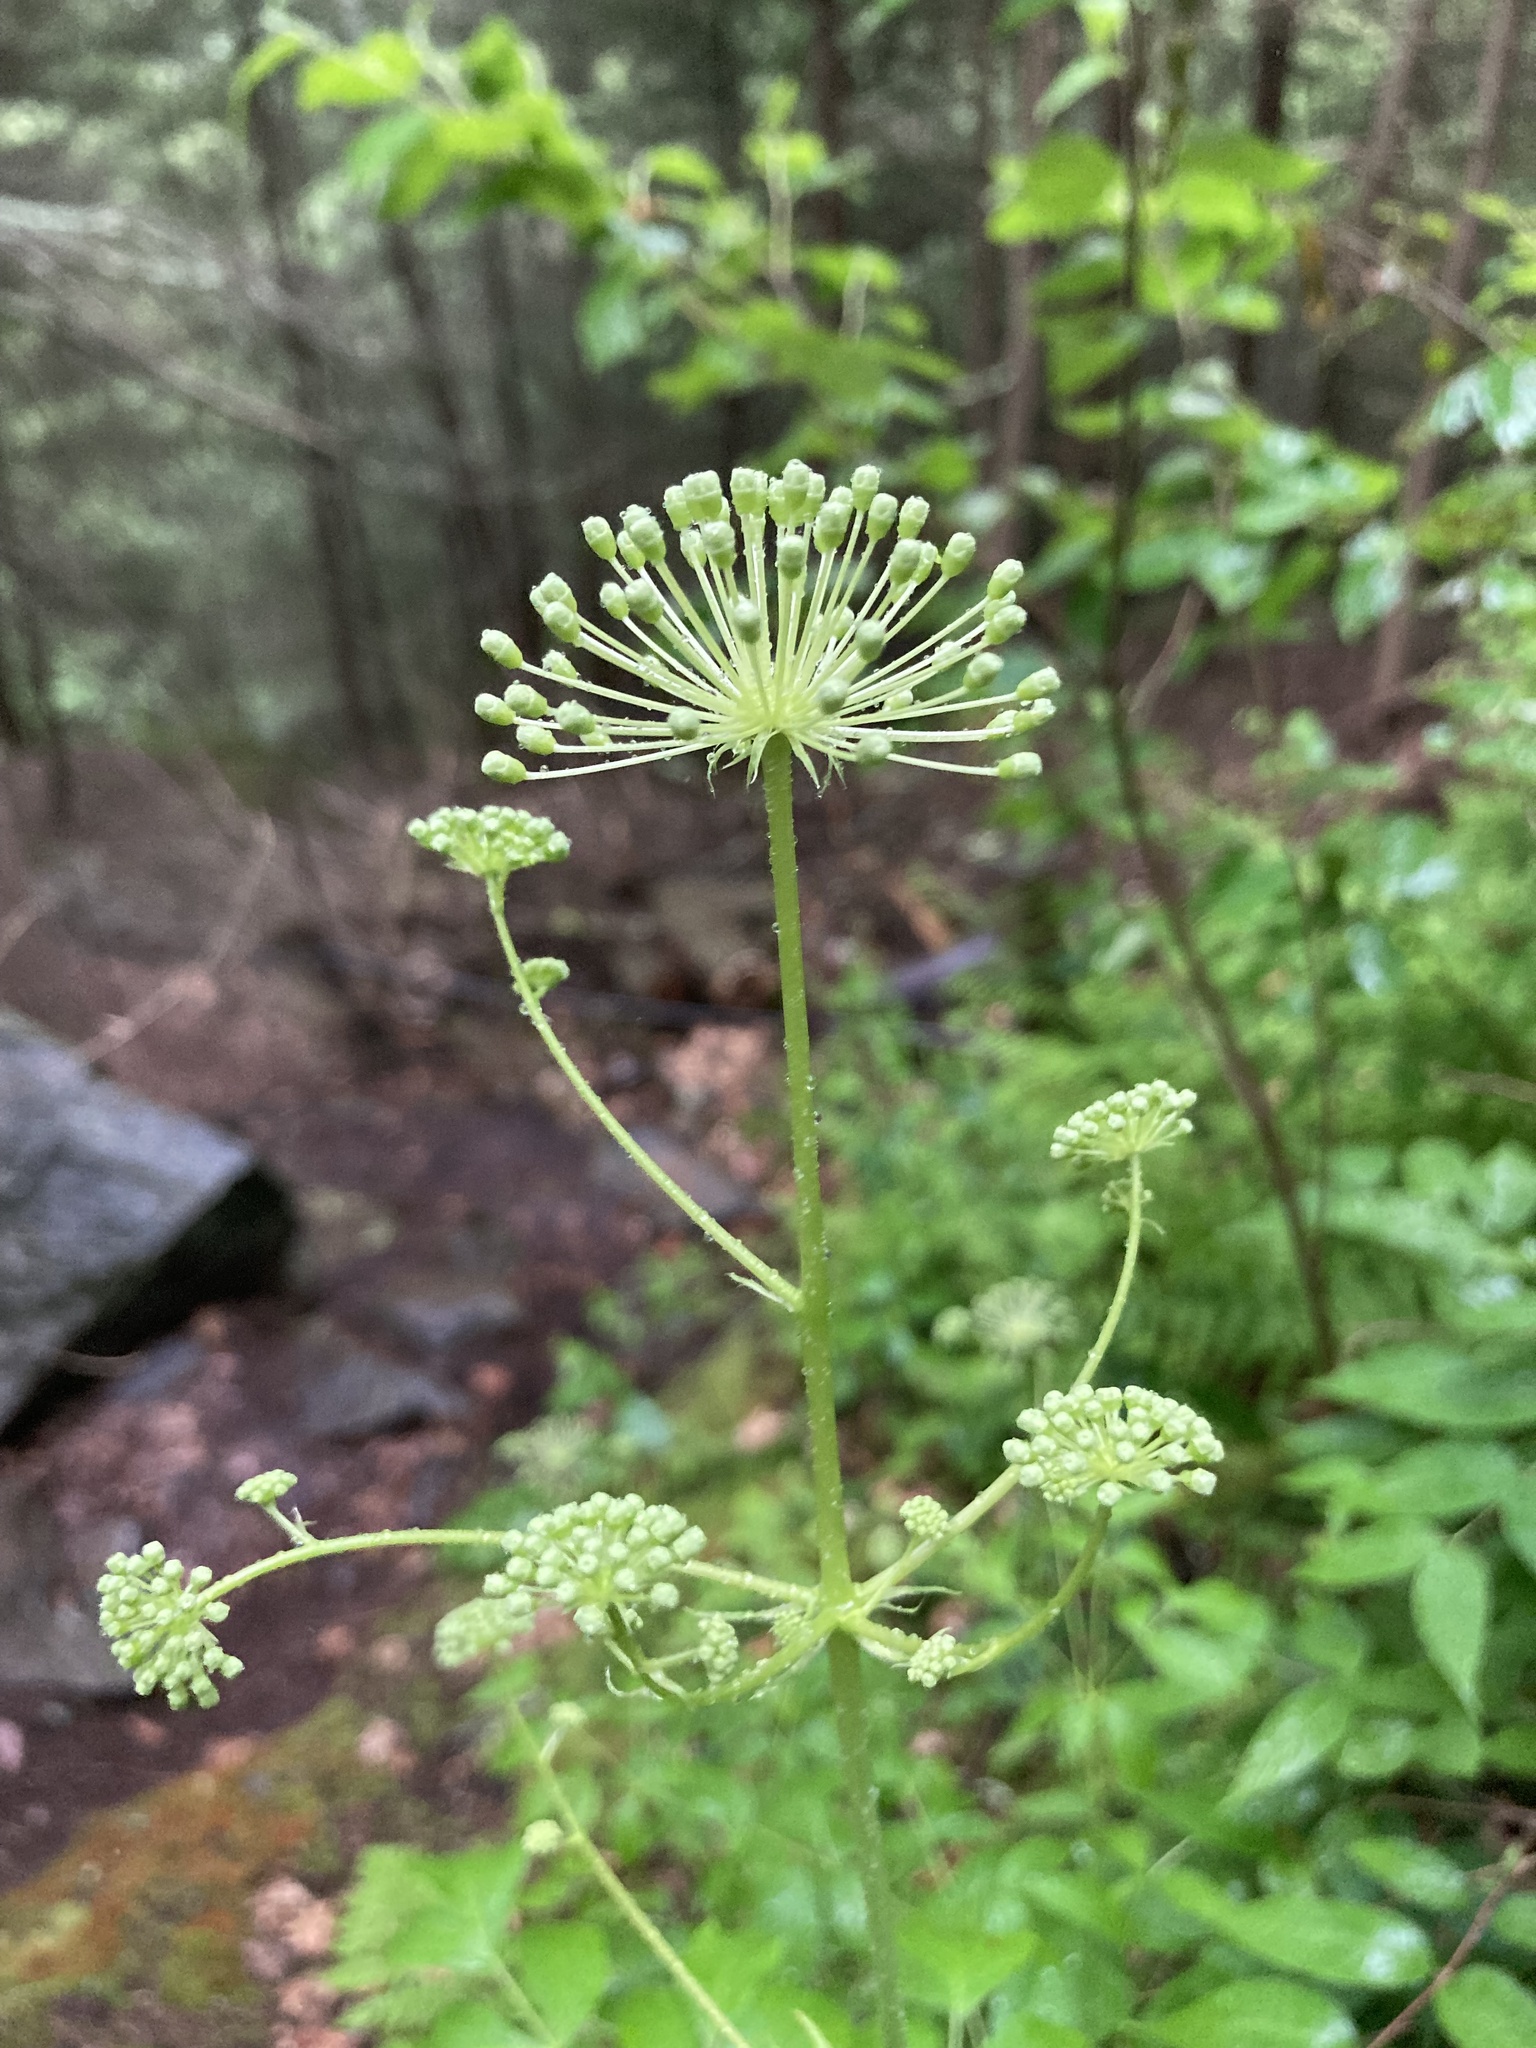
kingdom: Plantae
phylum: Tracheophyta
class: Magnoliopsida
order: Apiales
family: Araliaceae
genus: Aralia
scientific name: Aralia hispida
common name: Bristly sarsaparilla
